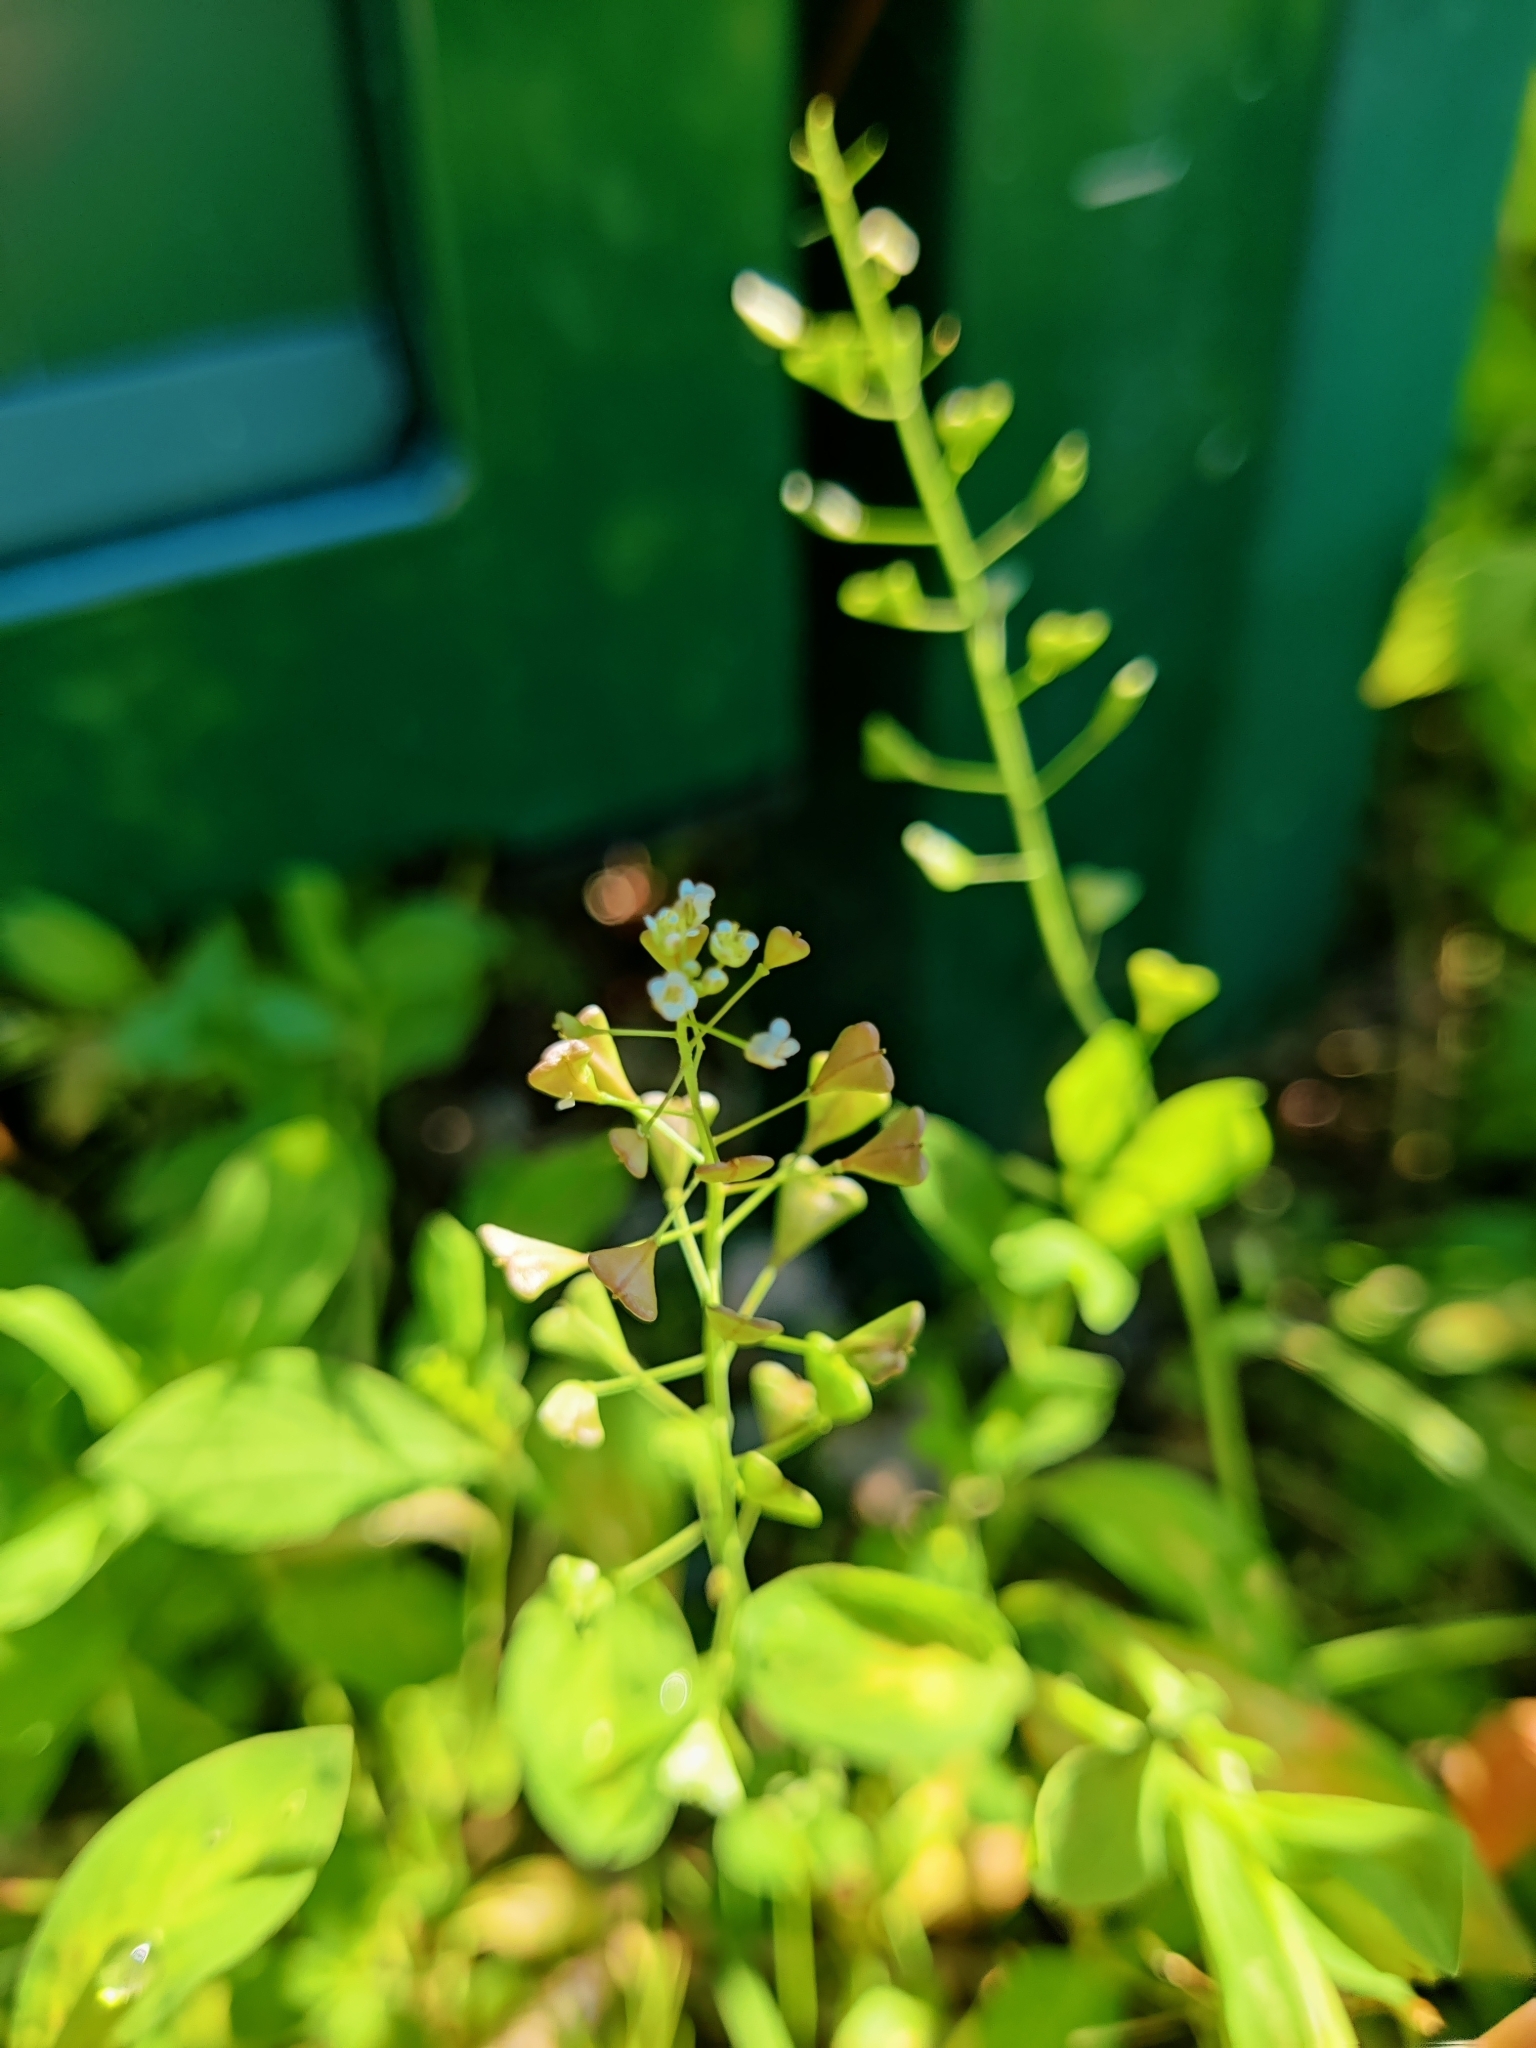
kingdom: Plantae
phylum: Tracheophyta
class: Magnoliopsida
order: Brassicales
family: Brassicaceae
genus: Capsella
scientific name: Capsella bursa-pastoris
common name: Shepherd's purse
